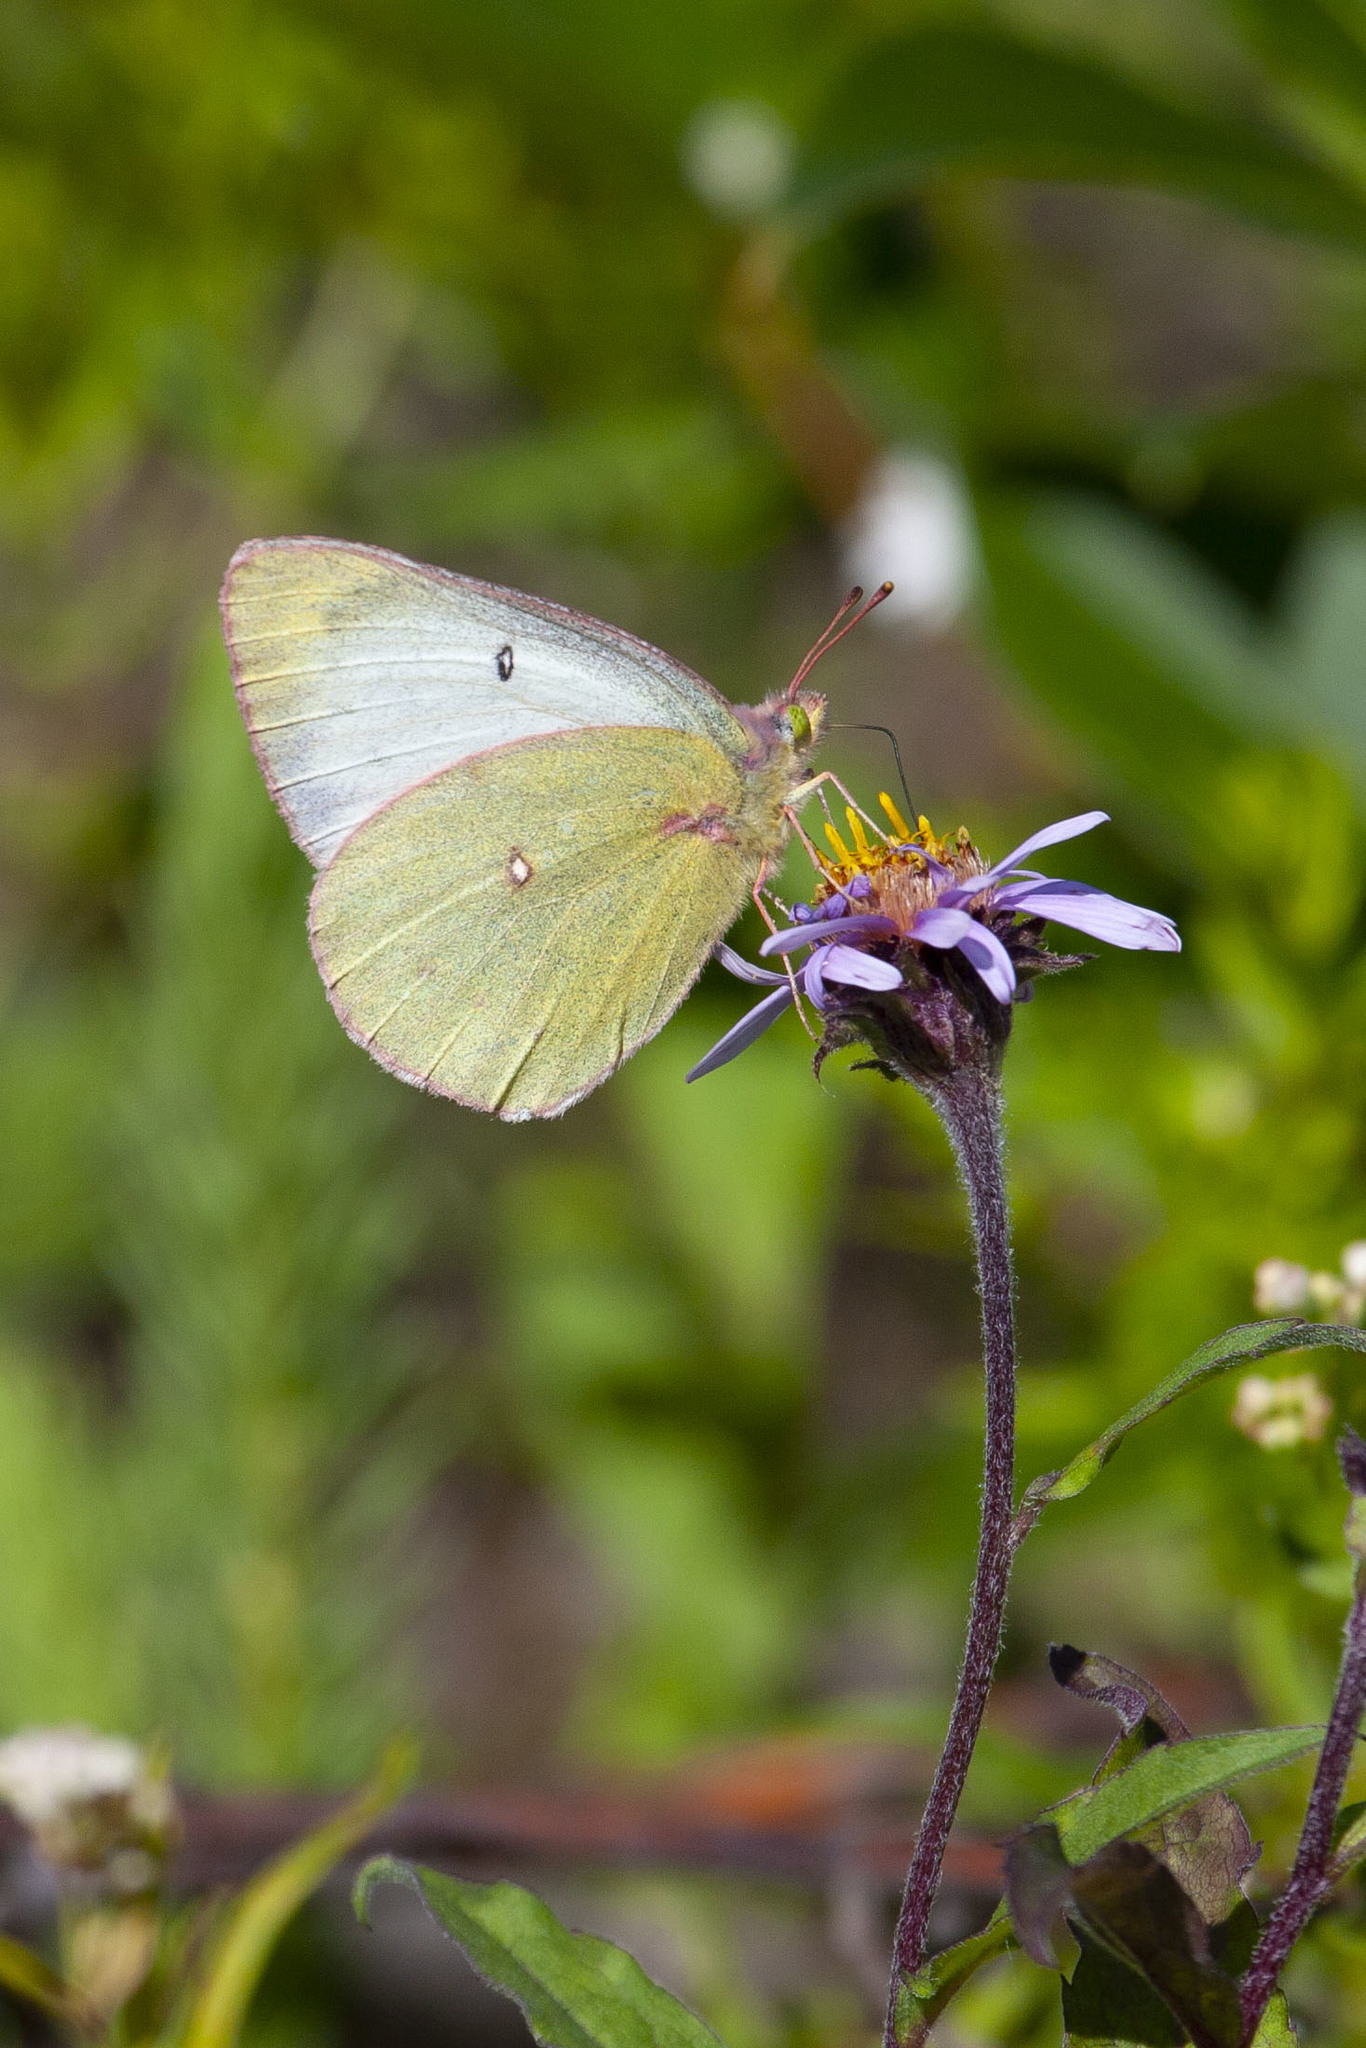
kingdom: Animalia
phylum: Arthropoda
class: Insecta
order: Lepidoptera
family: Pieridae
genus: Colias
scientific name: Colias philodice
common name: Clouded sulphur
